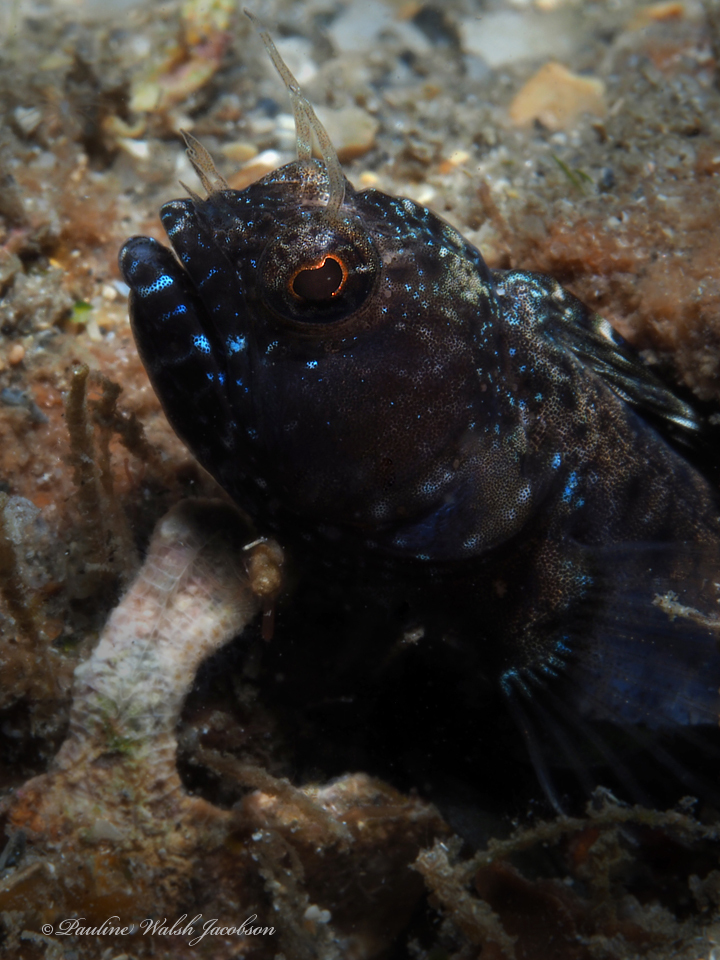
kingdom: Animalia
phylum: Chordata
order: Perciformes
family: Chaenopsidae
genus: Emblemaria
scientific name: Emblemaria pandionis
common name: Sailfin blenny
